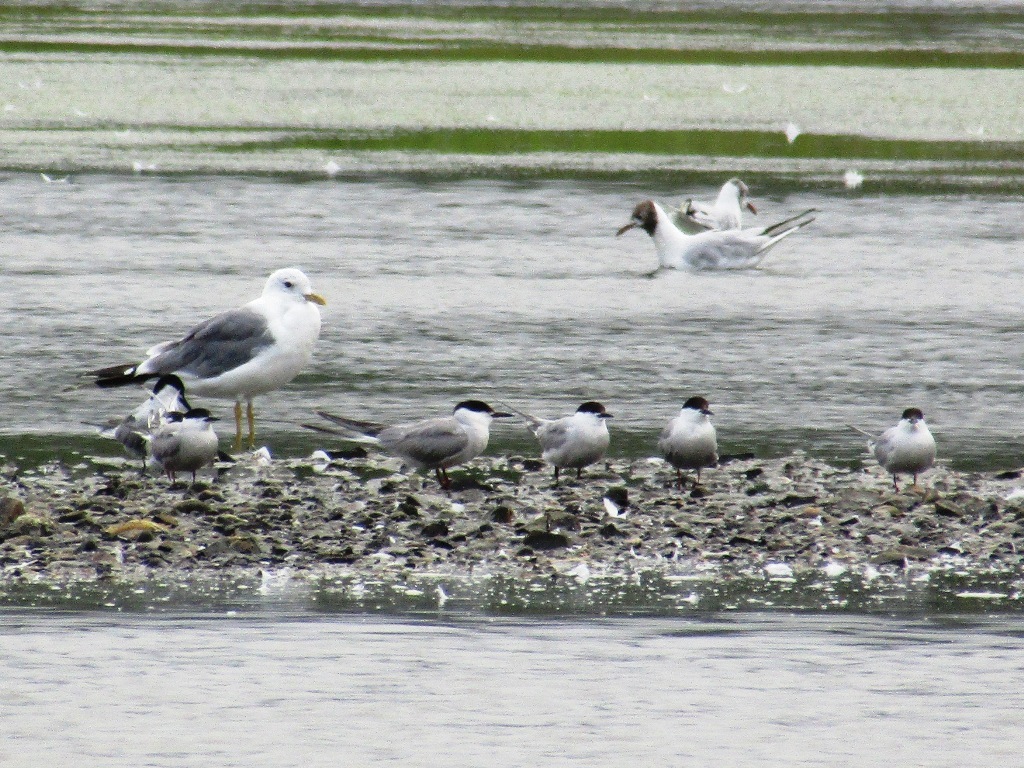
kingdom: Animalia
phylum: Chordata
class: Aves
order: Charadriiformes
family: Laridae
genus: Sterna
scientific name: Sterna hirundo
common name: Common tern
